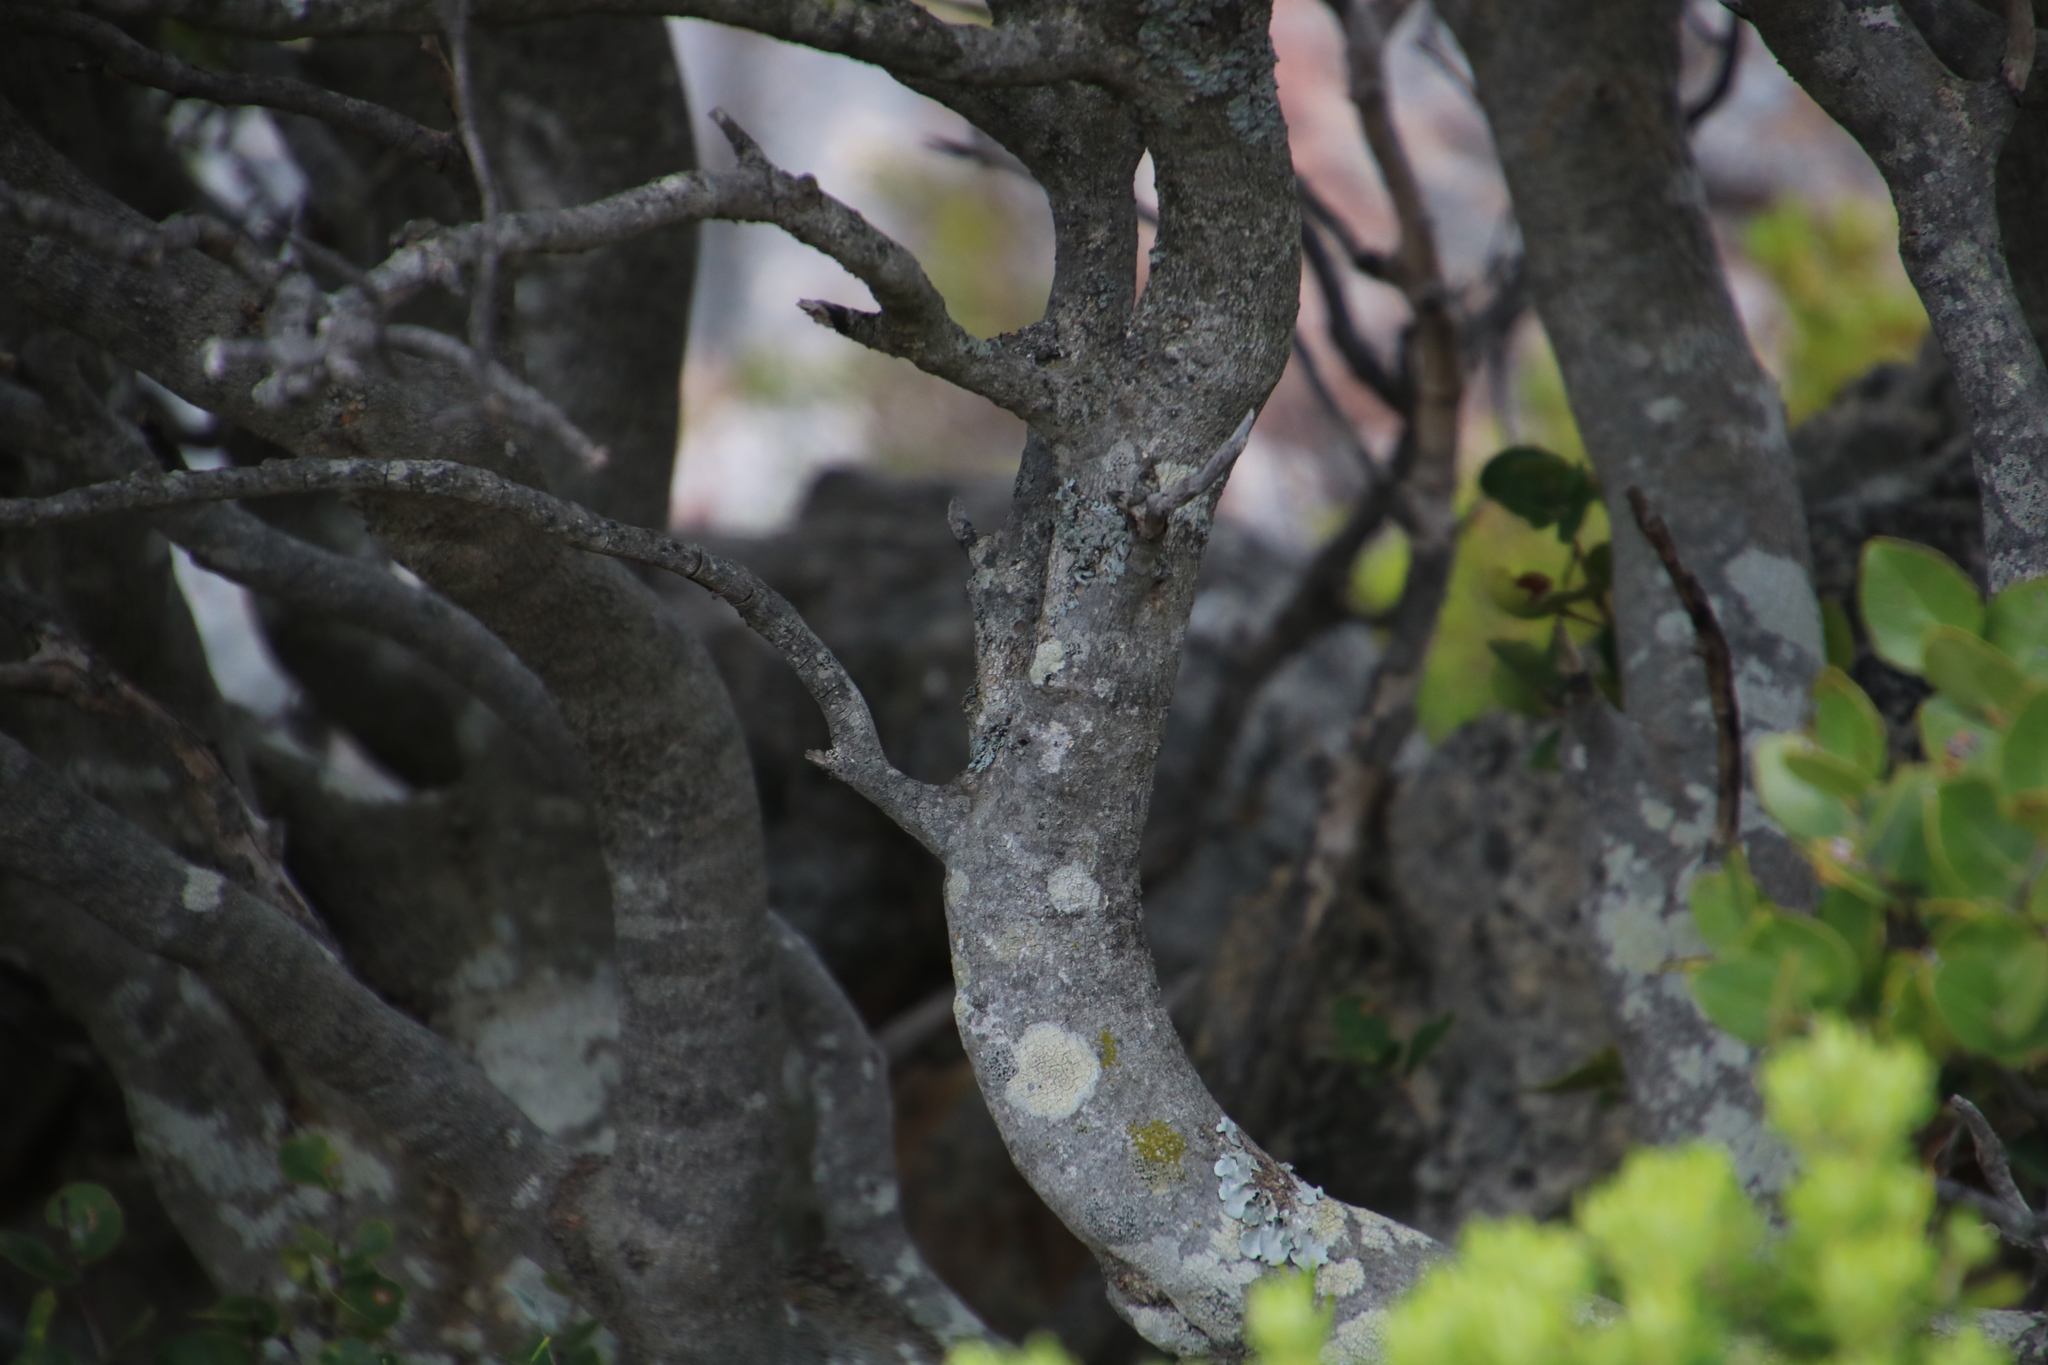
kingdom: Plantae
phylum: Tracheophyta
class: Magnoliopsida
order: Celastrales
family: Celastraceae
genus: Cassine
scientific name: Cassine peragua
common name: Cape saffron
